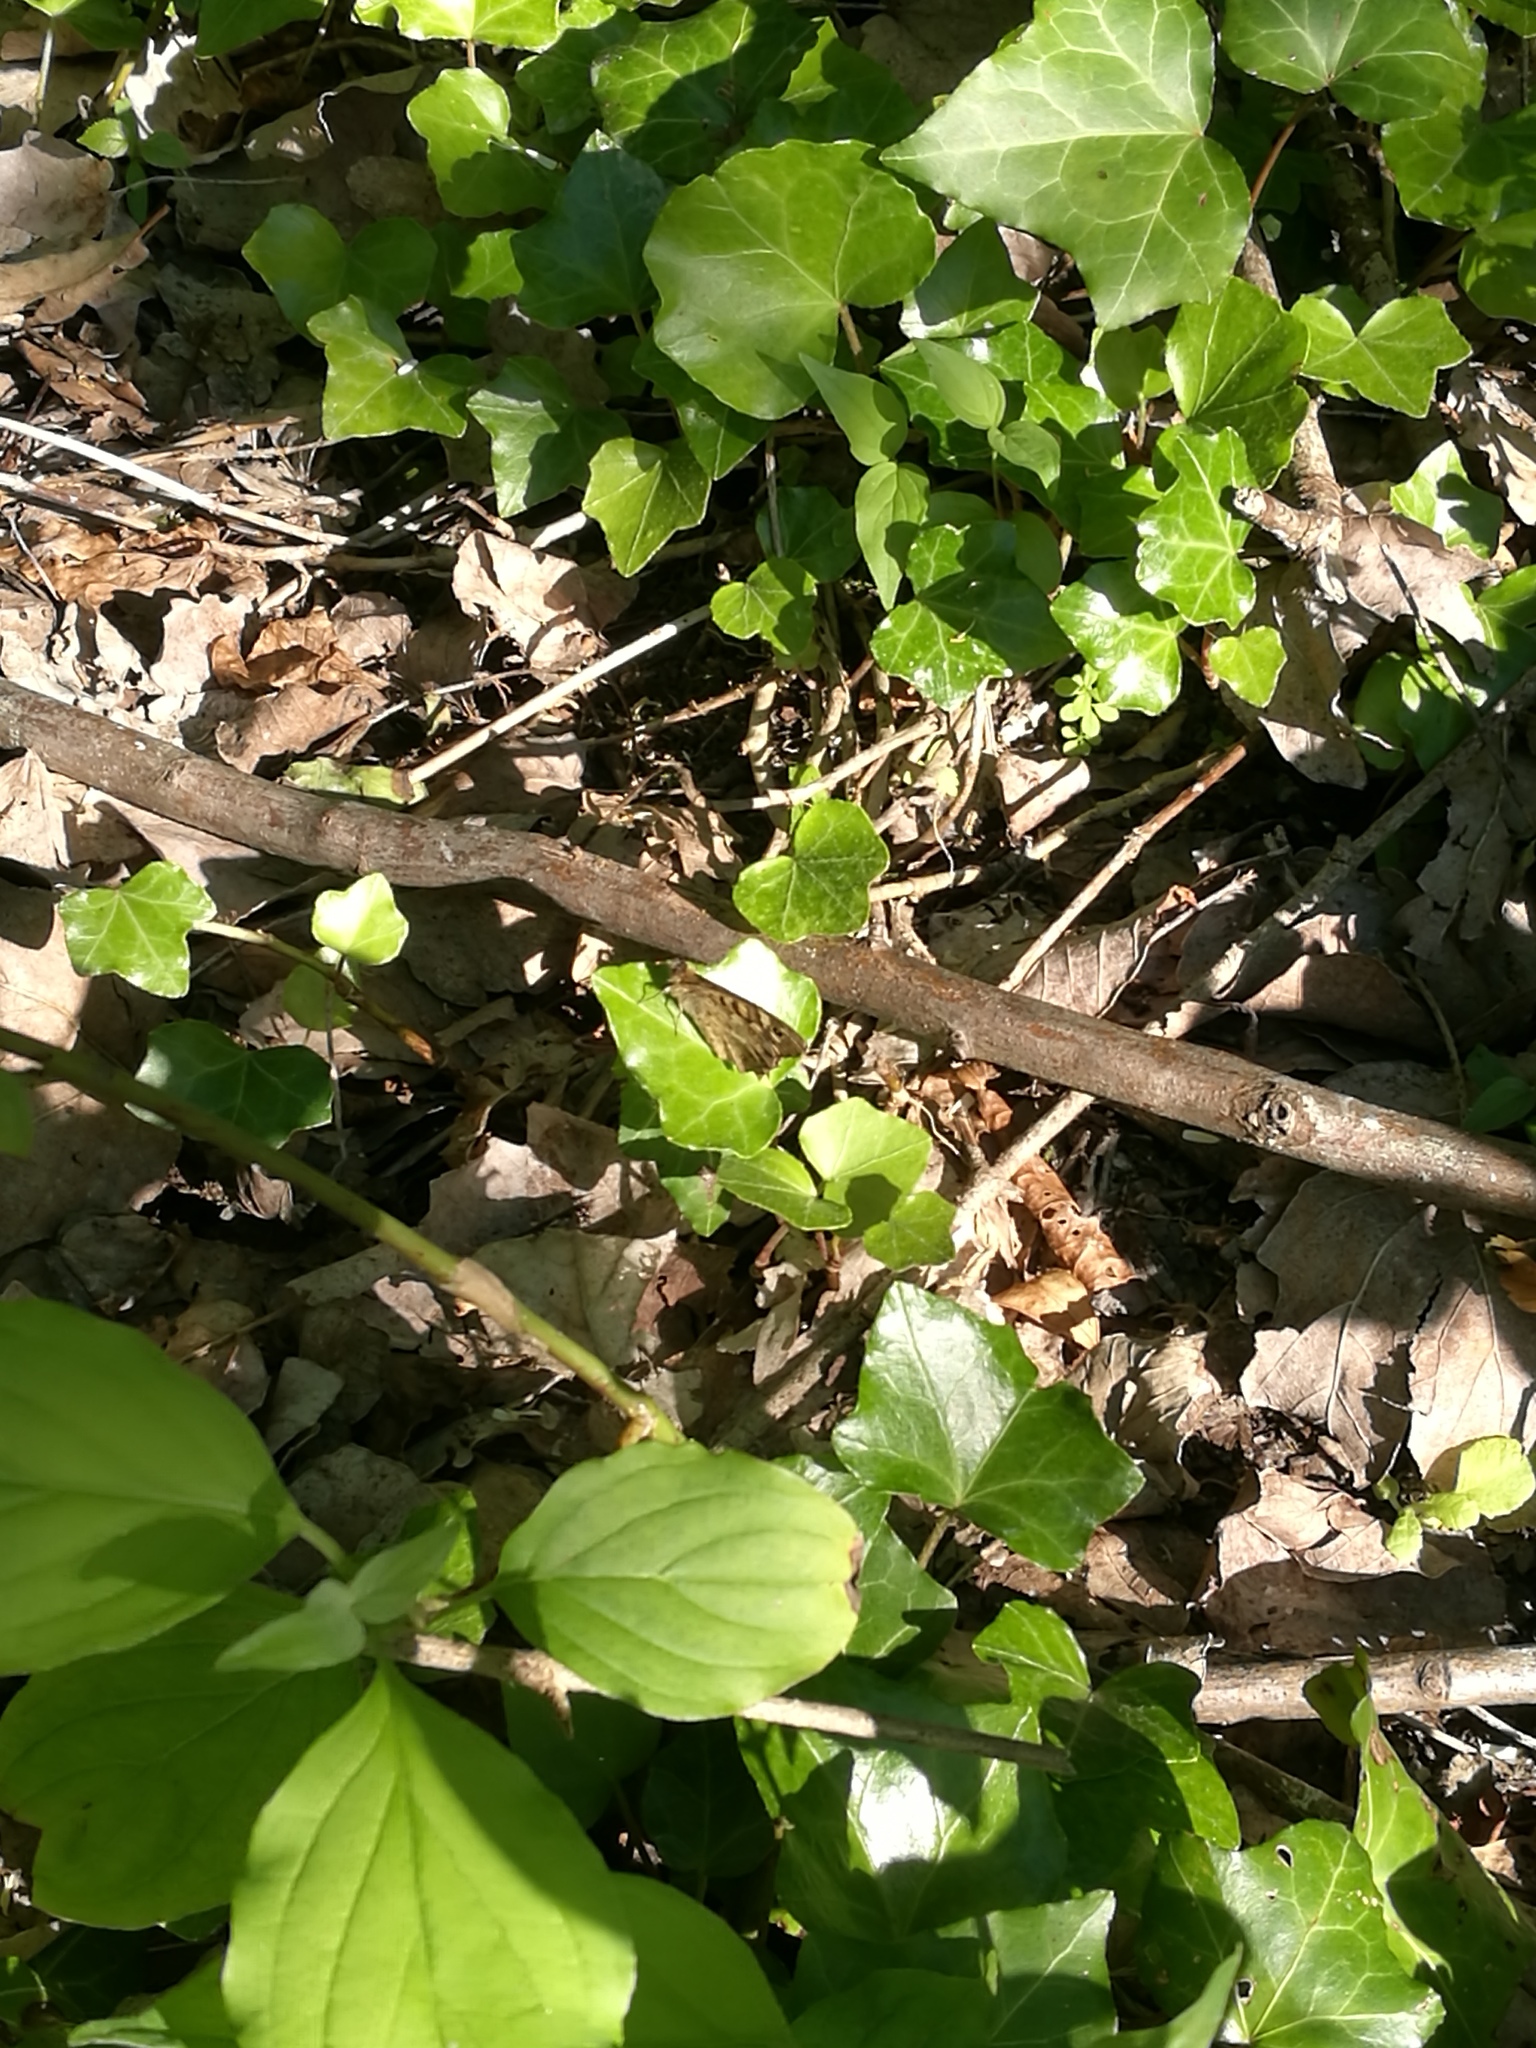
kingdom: Animalia
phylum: Arthropoda
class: Insecta
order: Lepidoptera
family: Nymphalidae
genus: Pararge
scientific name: Pararge aegeria
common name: Speckled wood
